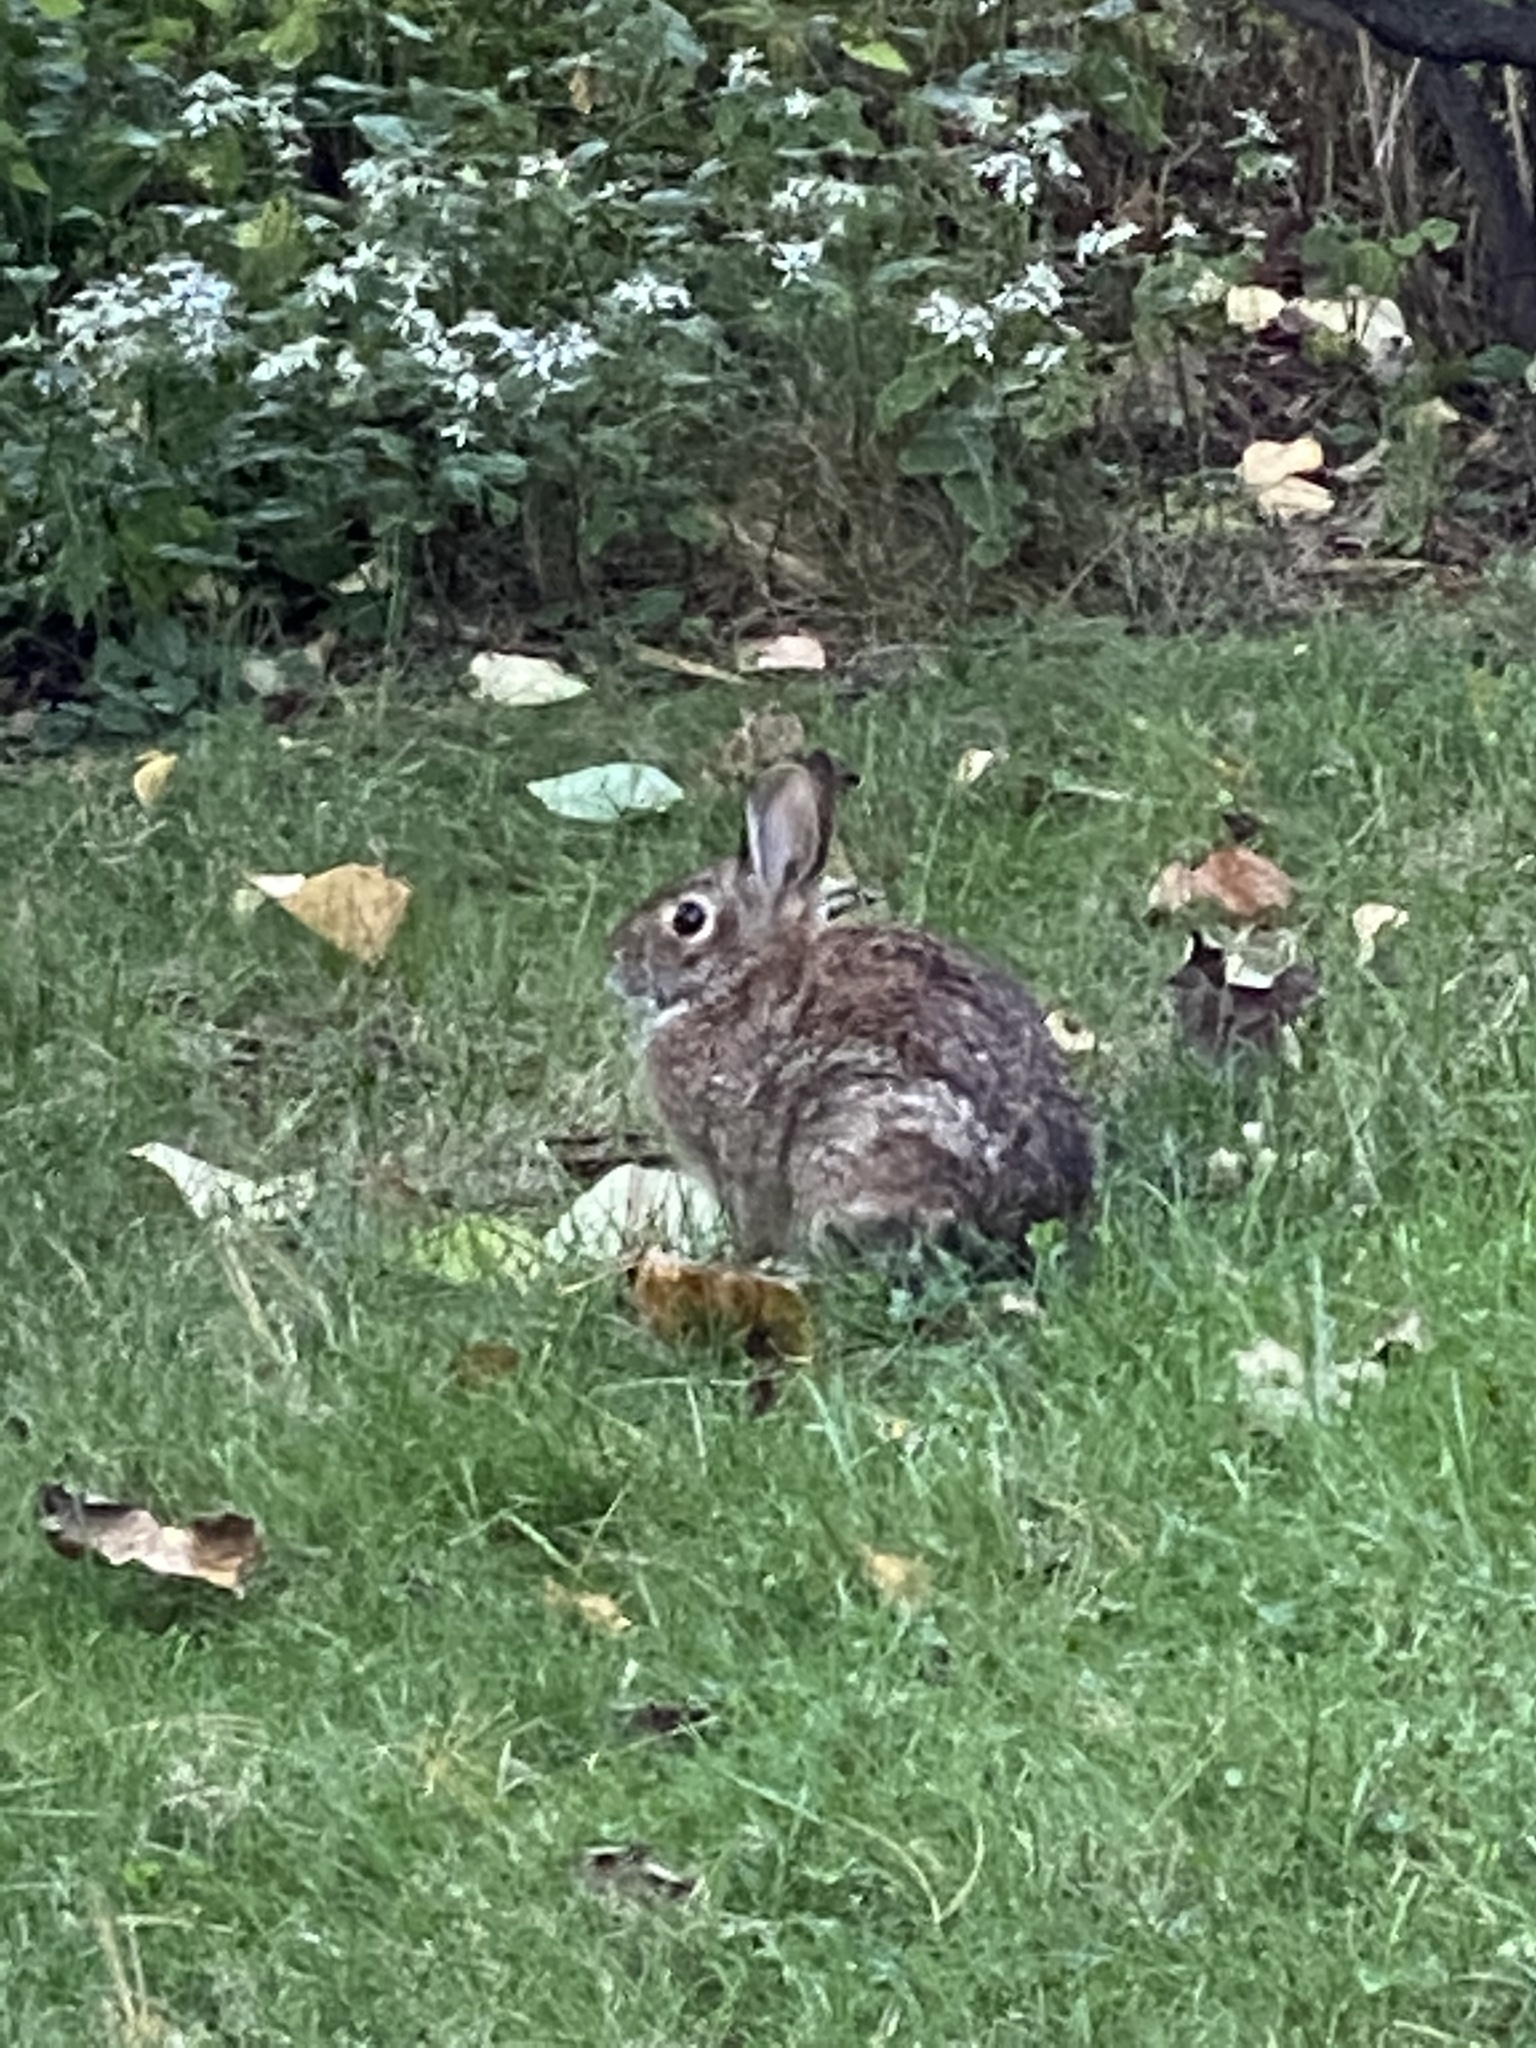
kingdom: Animalia
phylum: Chordata
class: Mammalia
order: Lagomorpha
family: Leporidae
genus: Sylvilagus
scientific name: Sylvilagus floridanus
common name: Eastern cottontail
